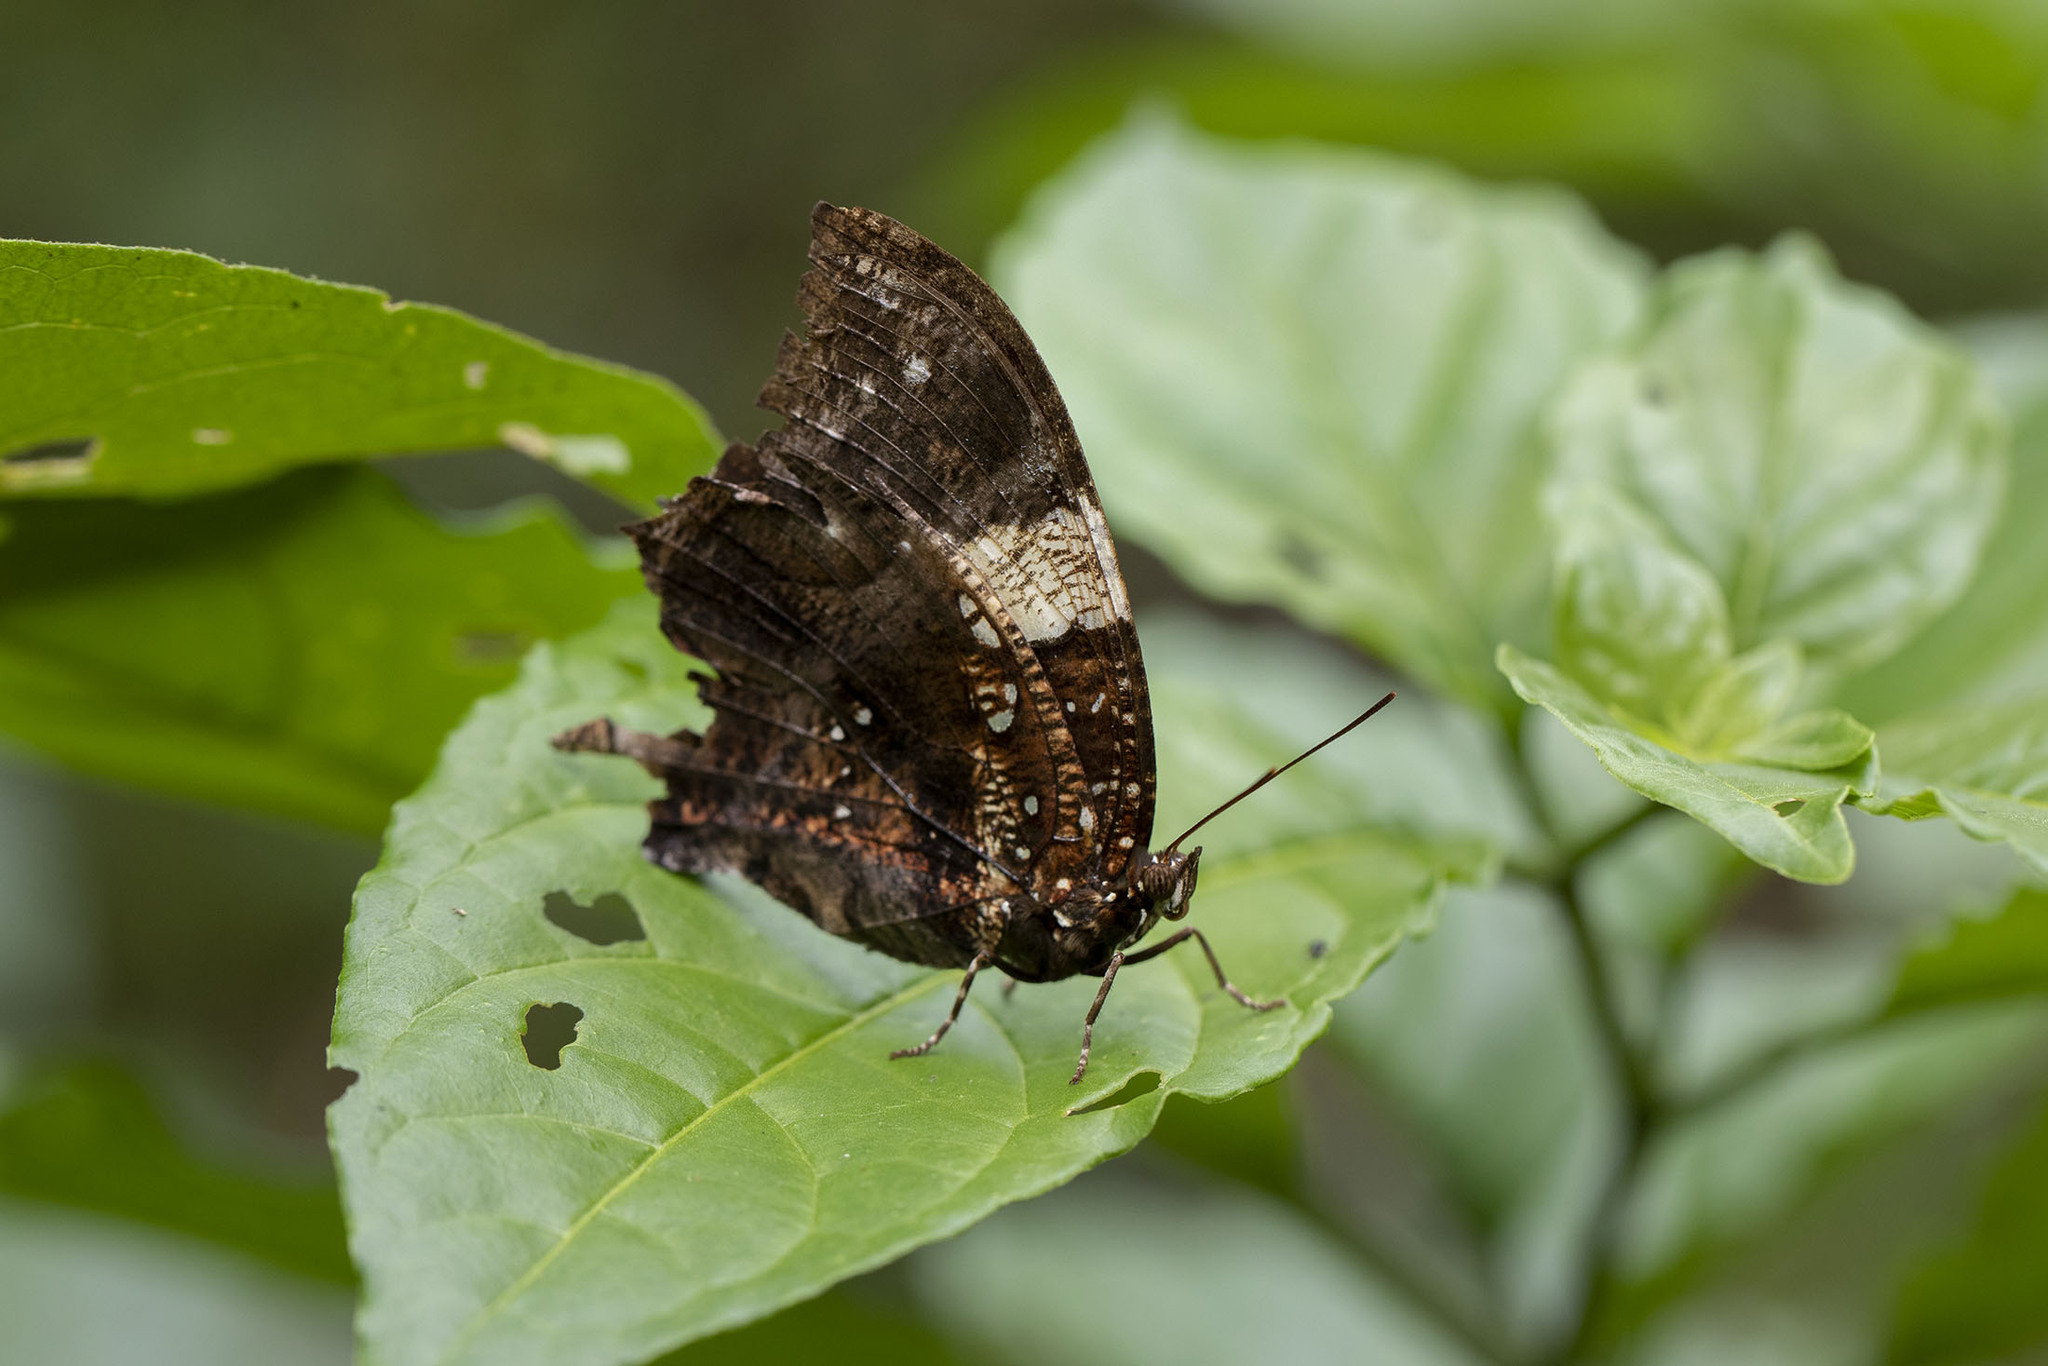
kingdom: Animalia
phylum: Arthropoda
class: Insecta
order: Lepidoptera
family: Nymphalidae
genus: Hypna
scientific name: Hypna clytemnestra
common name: Silver-studded leafwing
